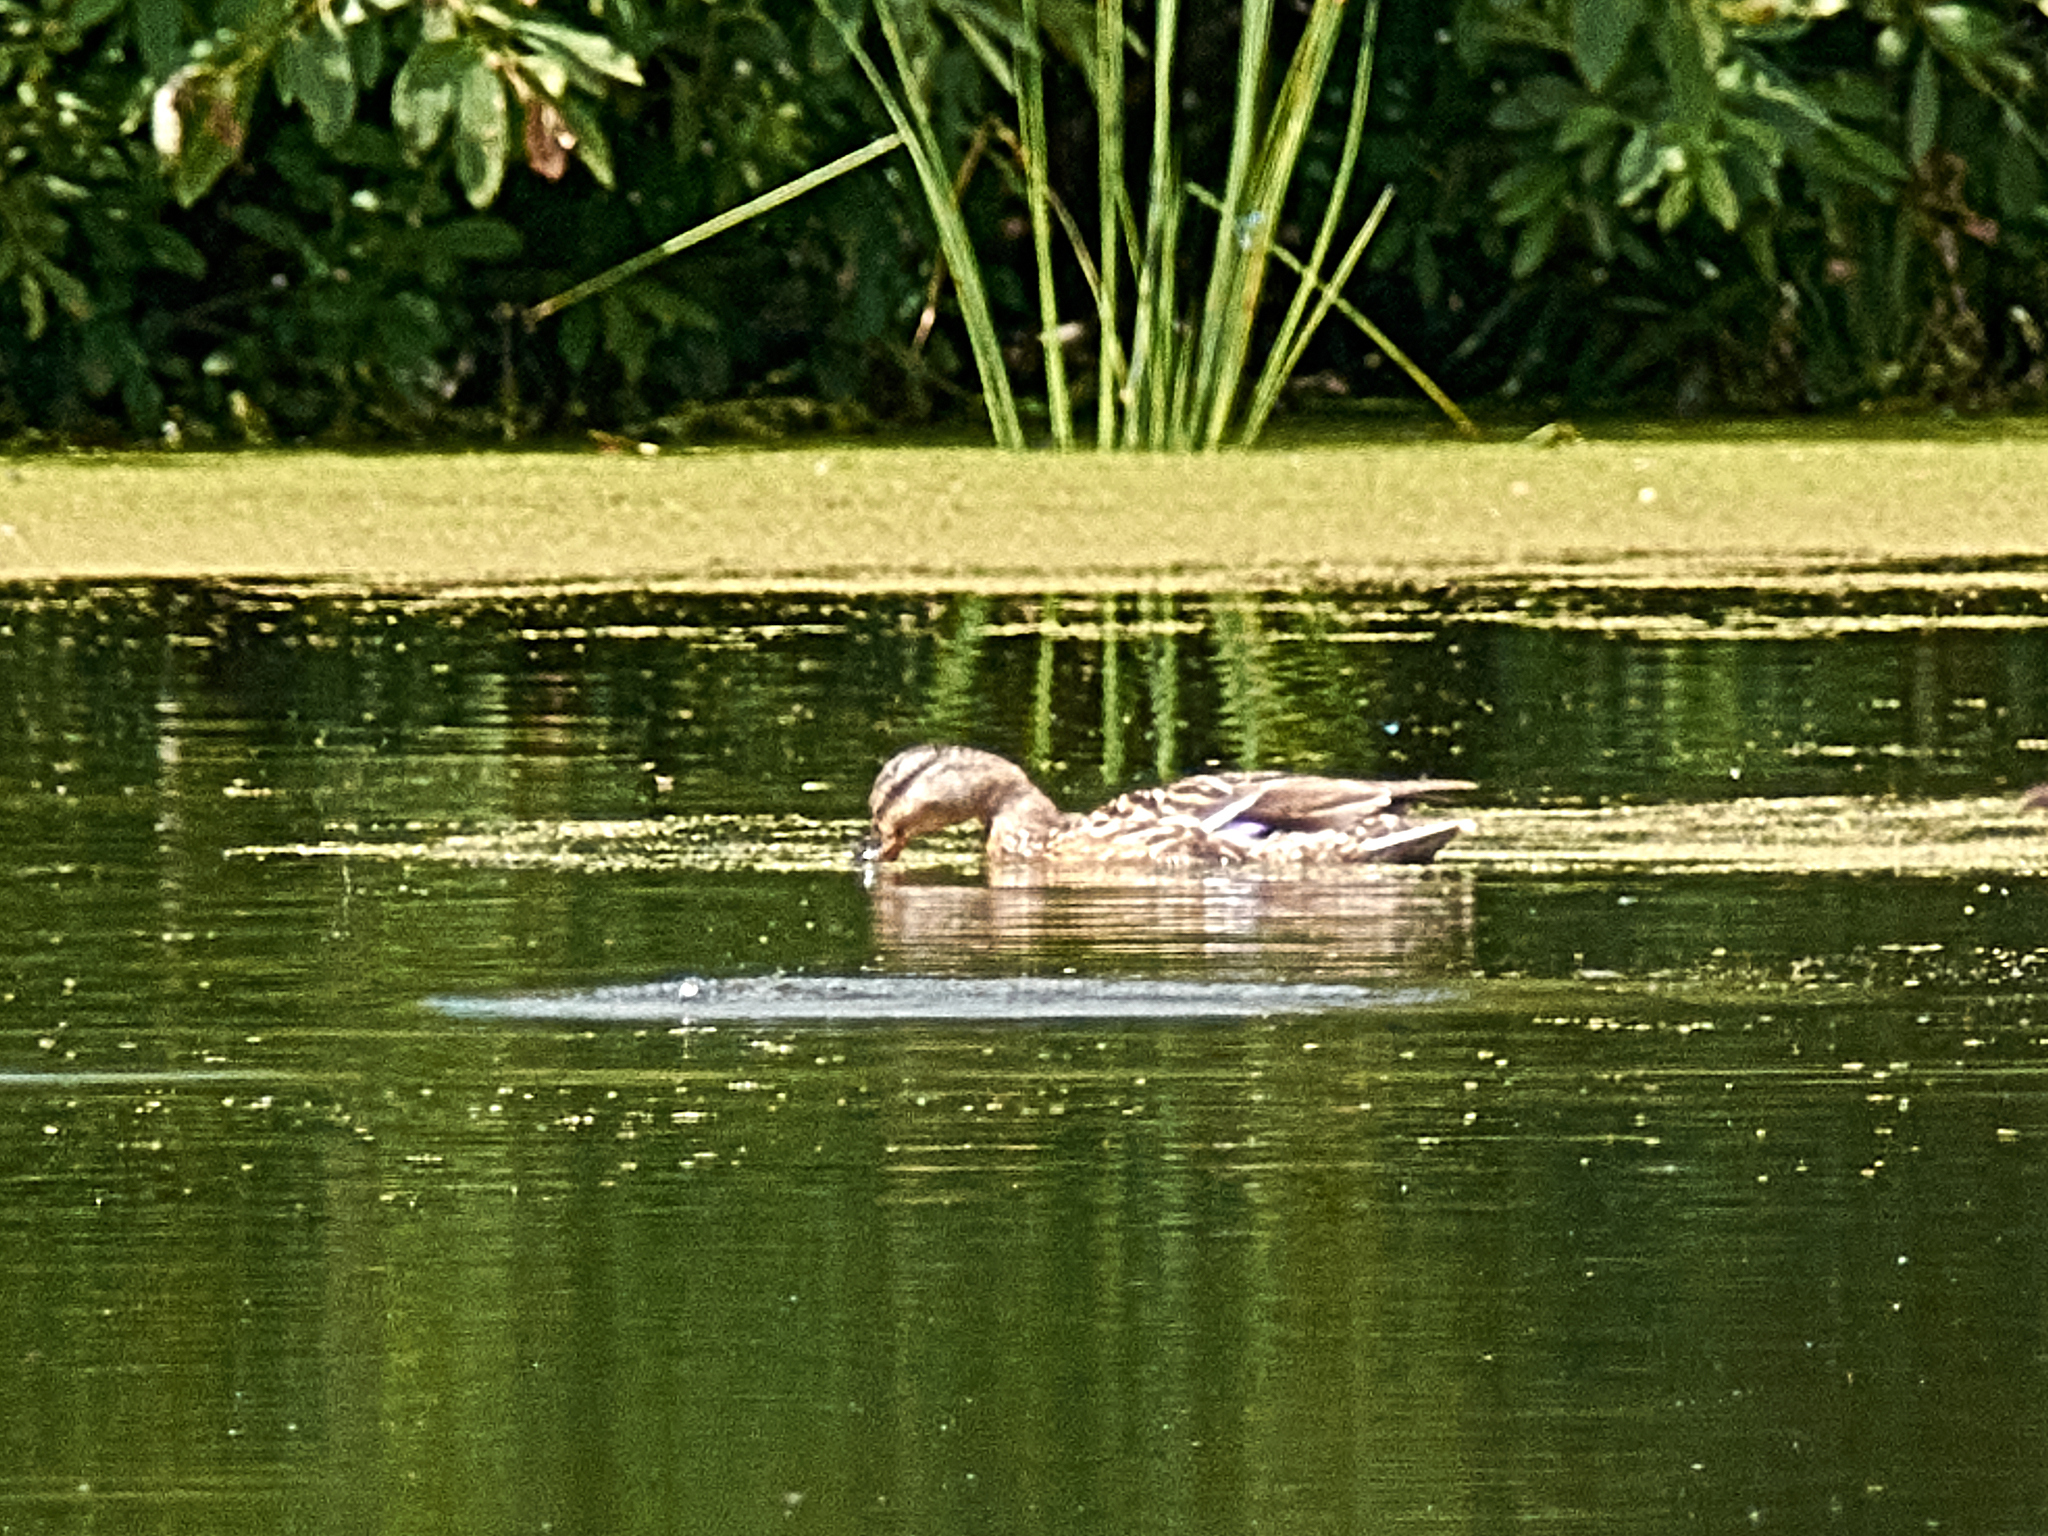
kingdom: Animalia
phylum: Chordata
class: Aves
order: Anseriformes
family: Anatidae
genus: Anas
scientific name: Anas platyrhynchos
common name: Mallard
